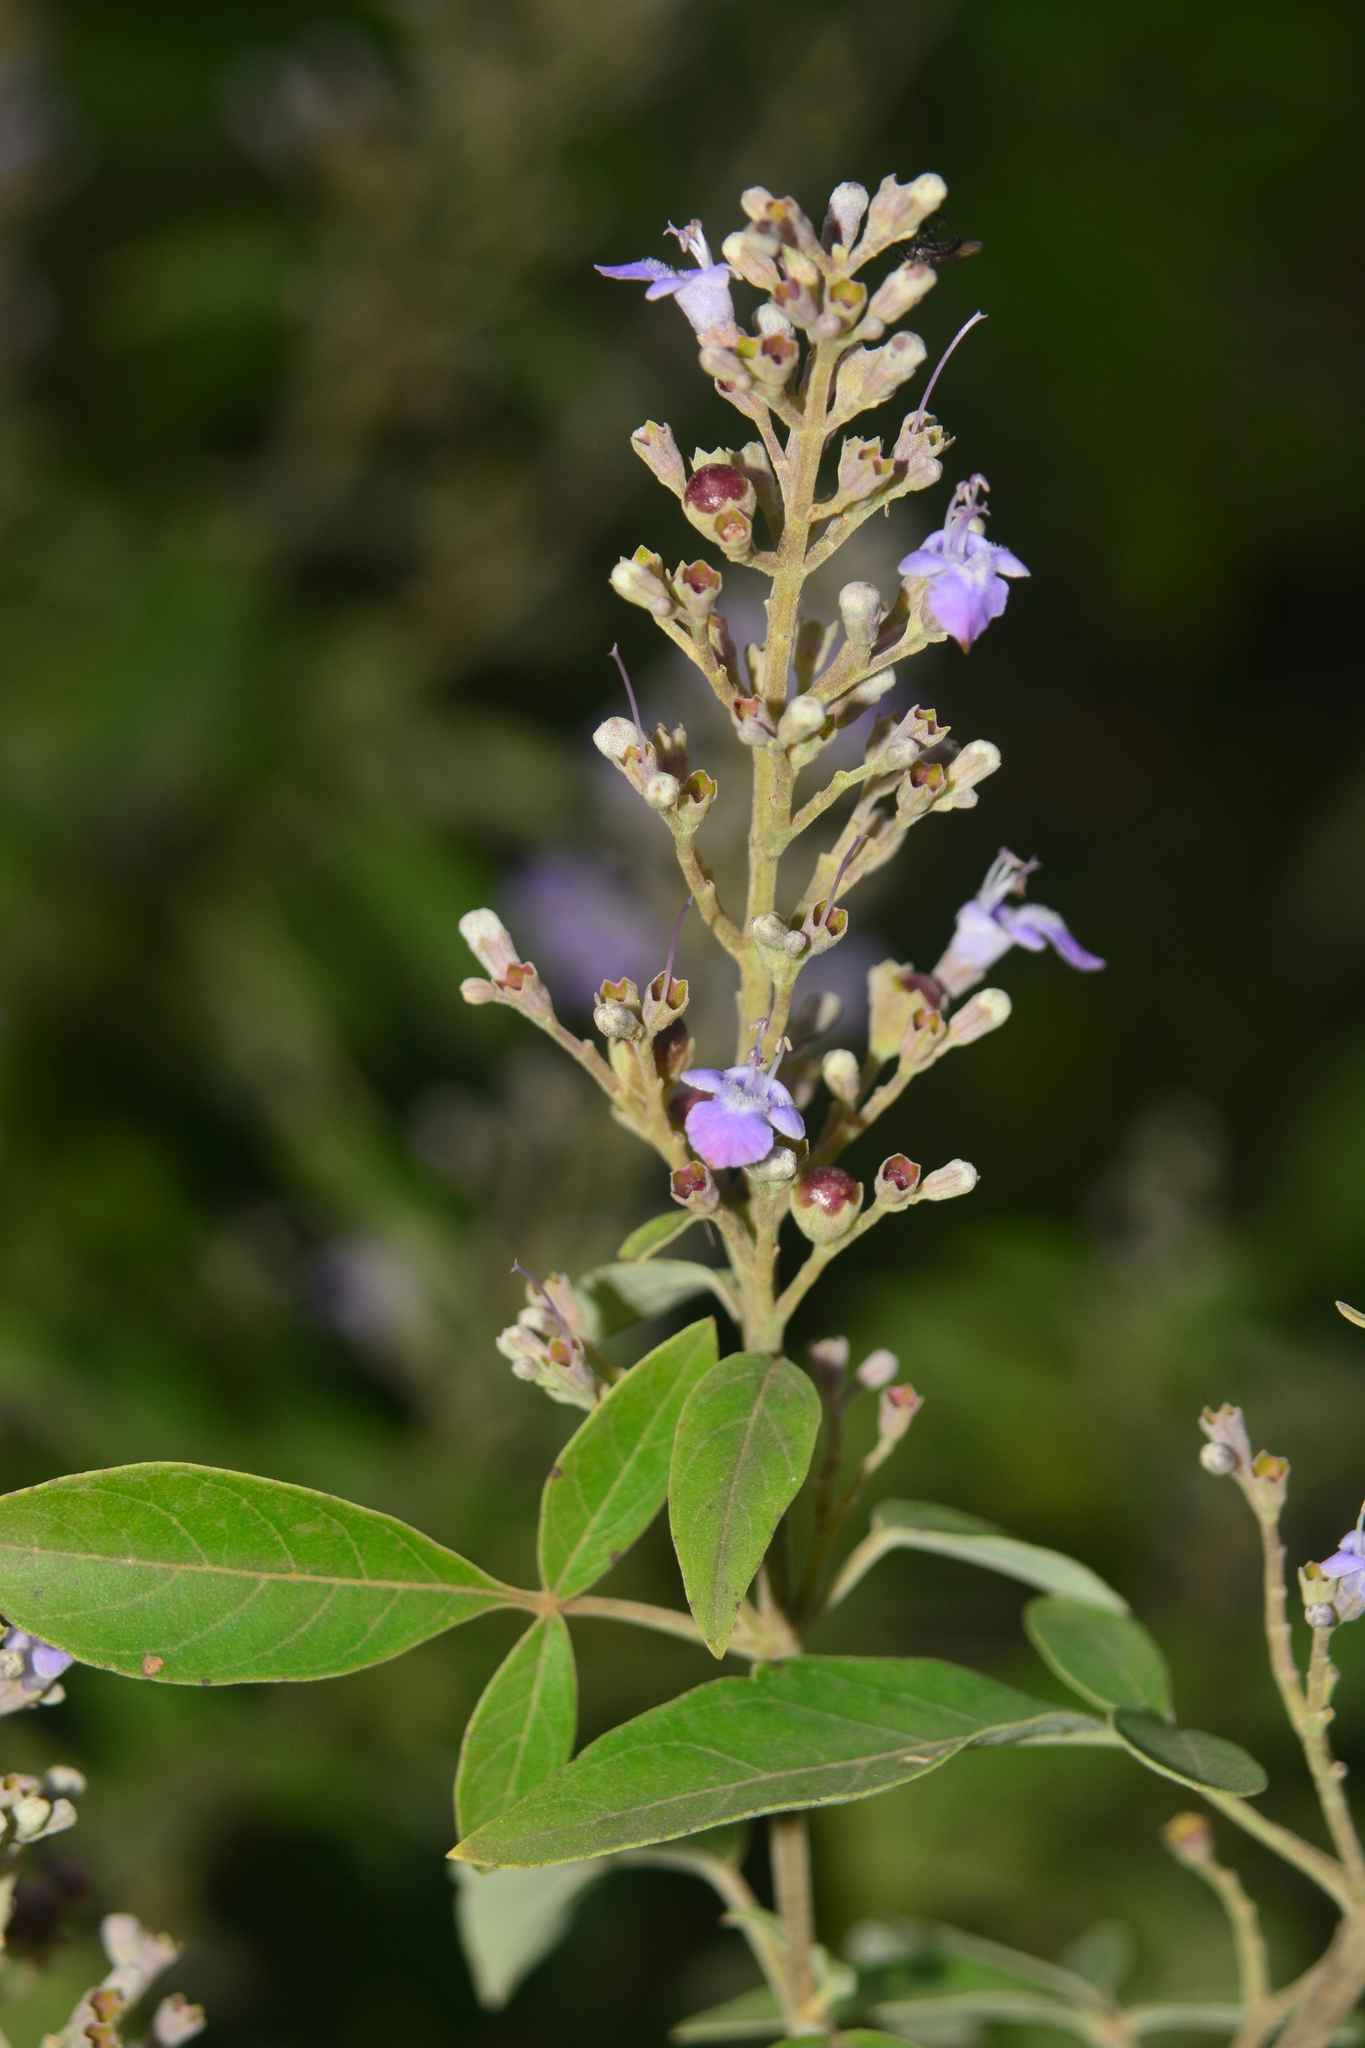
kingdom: Plantae
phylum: Tracheophyta
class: Magnoliopsida
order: Lamiales
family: Lamiaceae
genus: Vitex
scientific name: Vitex negundo
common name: Chinese chastetree
